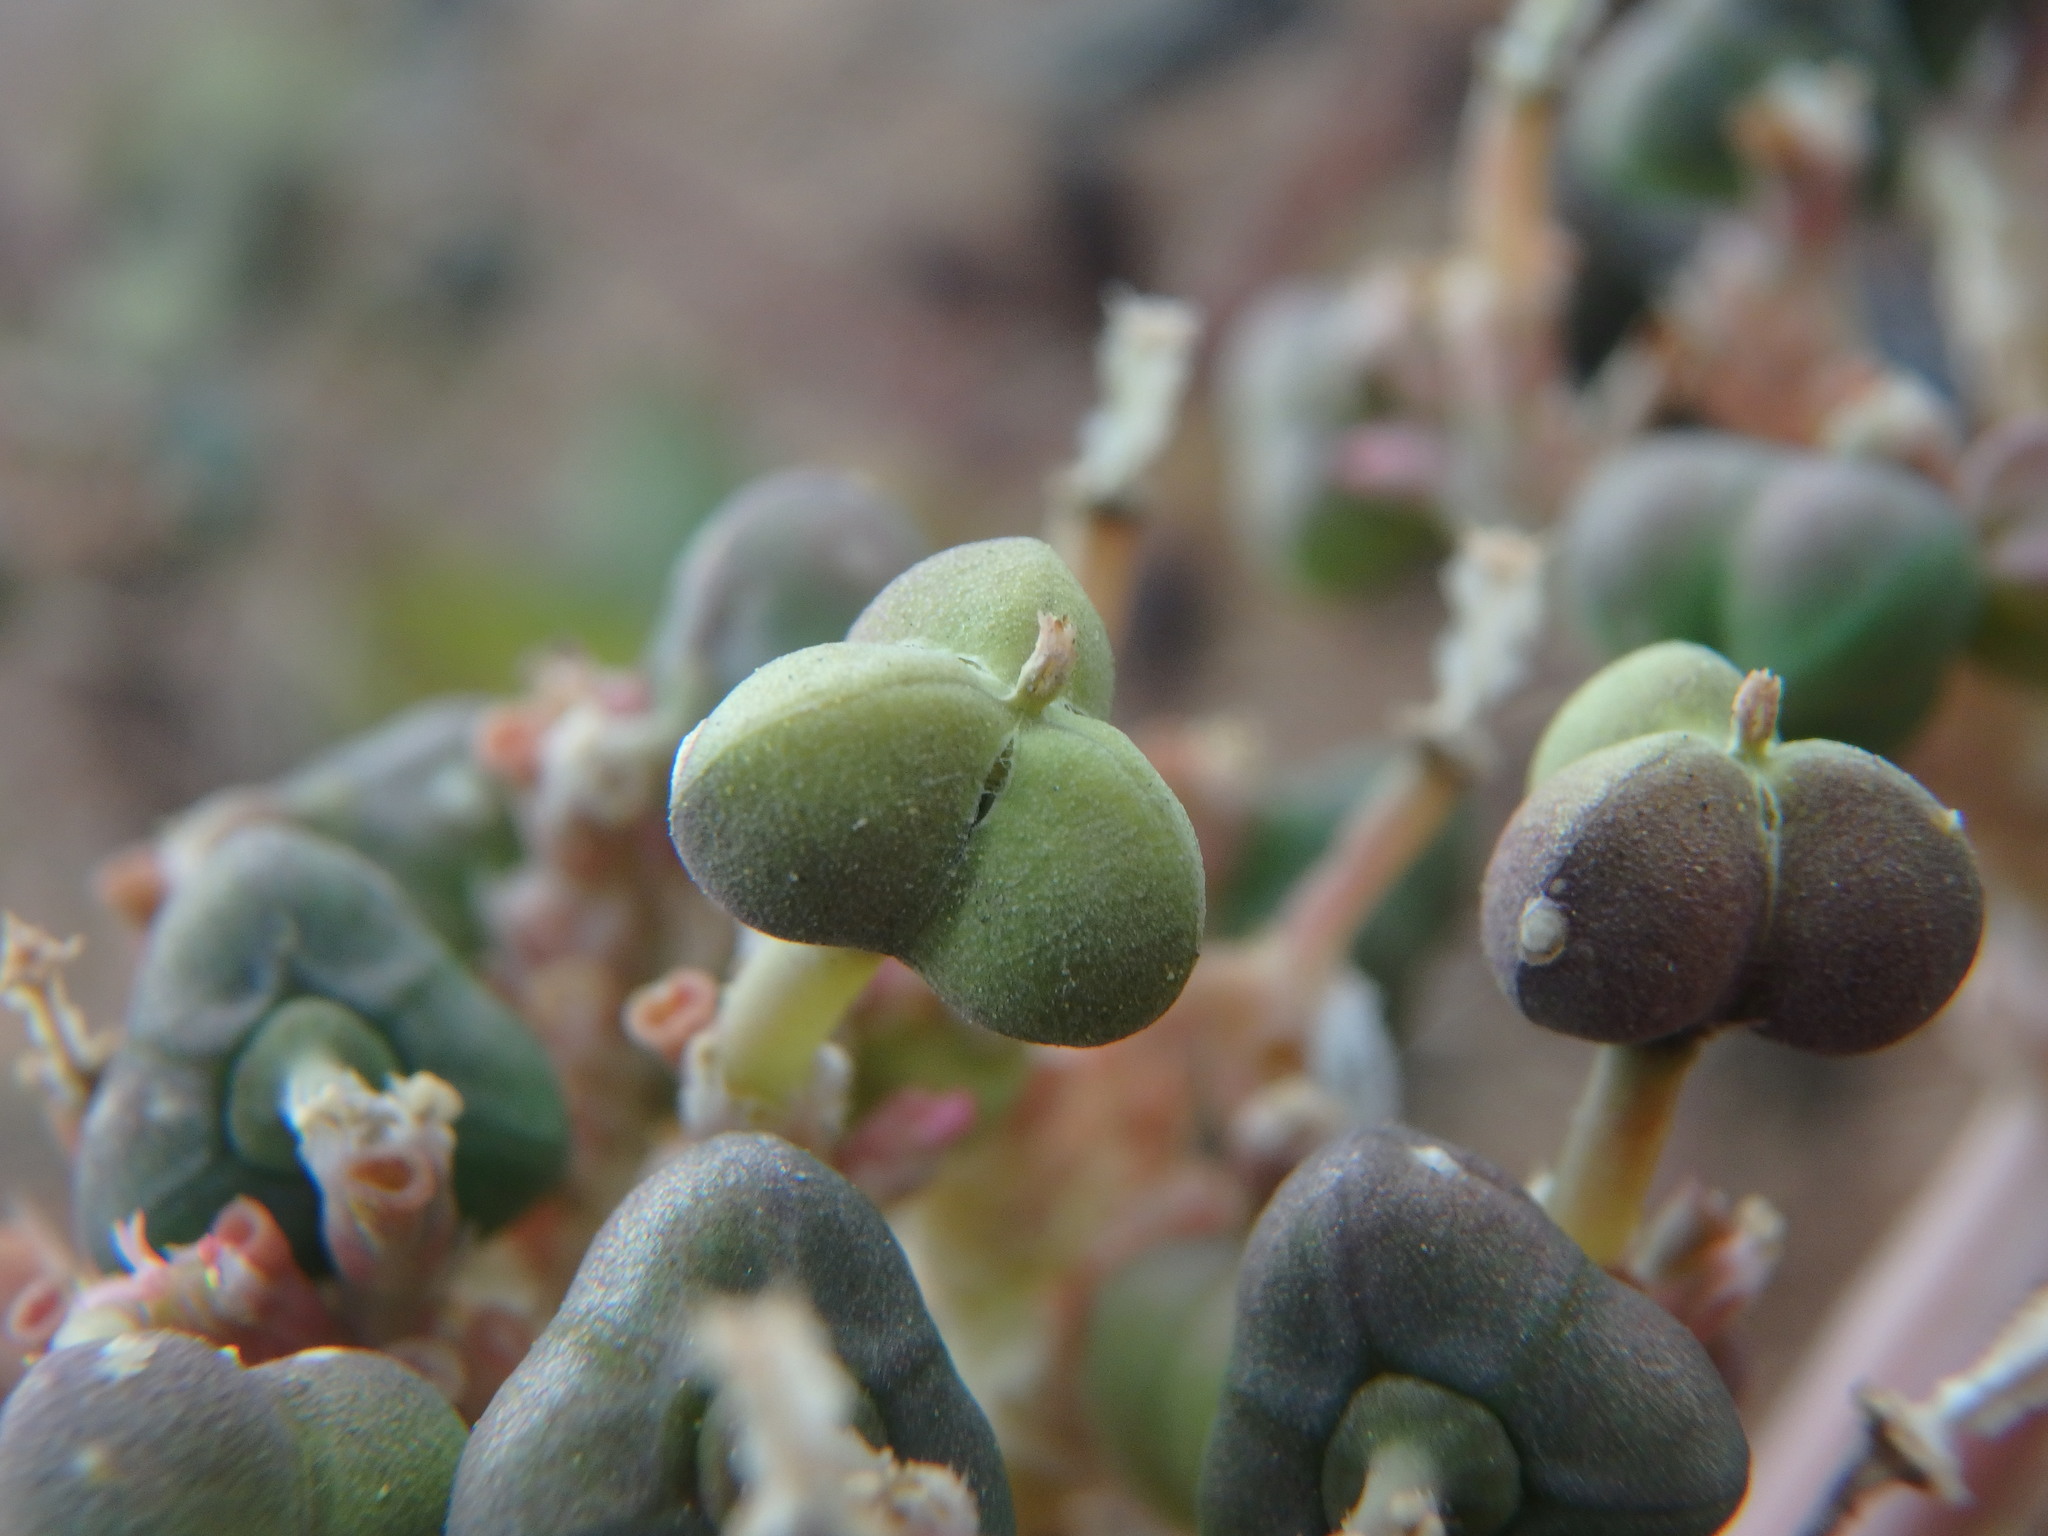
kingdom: Plantae
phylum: Tracheophyta
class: Magnoliopsida
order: Malpighiales
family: Euphorbiaceae
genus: Euphorbia
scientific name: Euphorbia heterophylla
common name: Mexican fireplant
